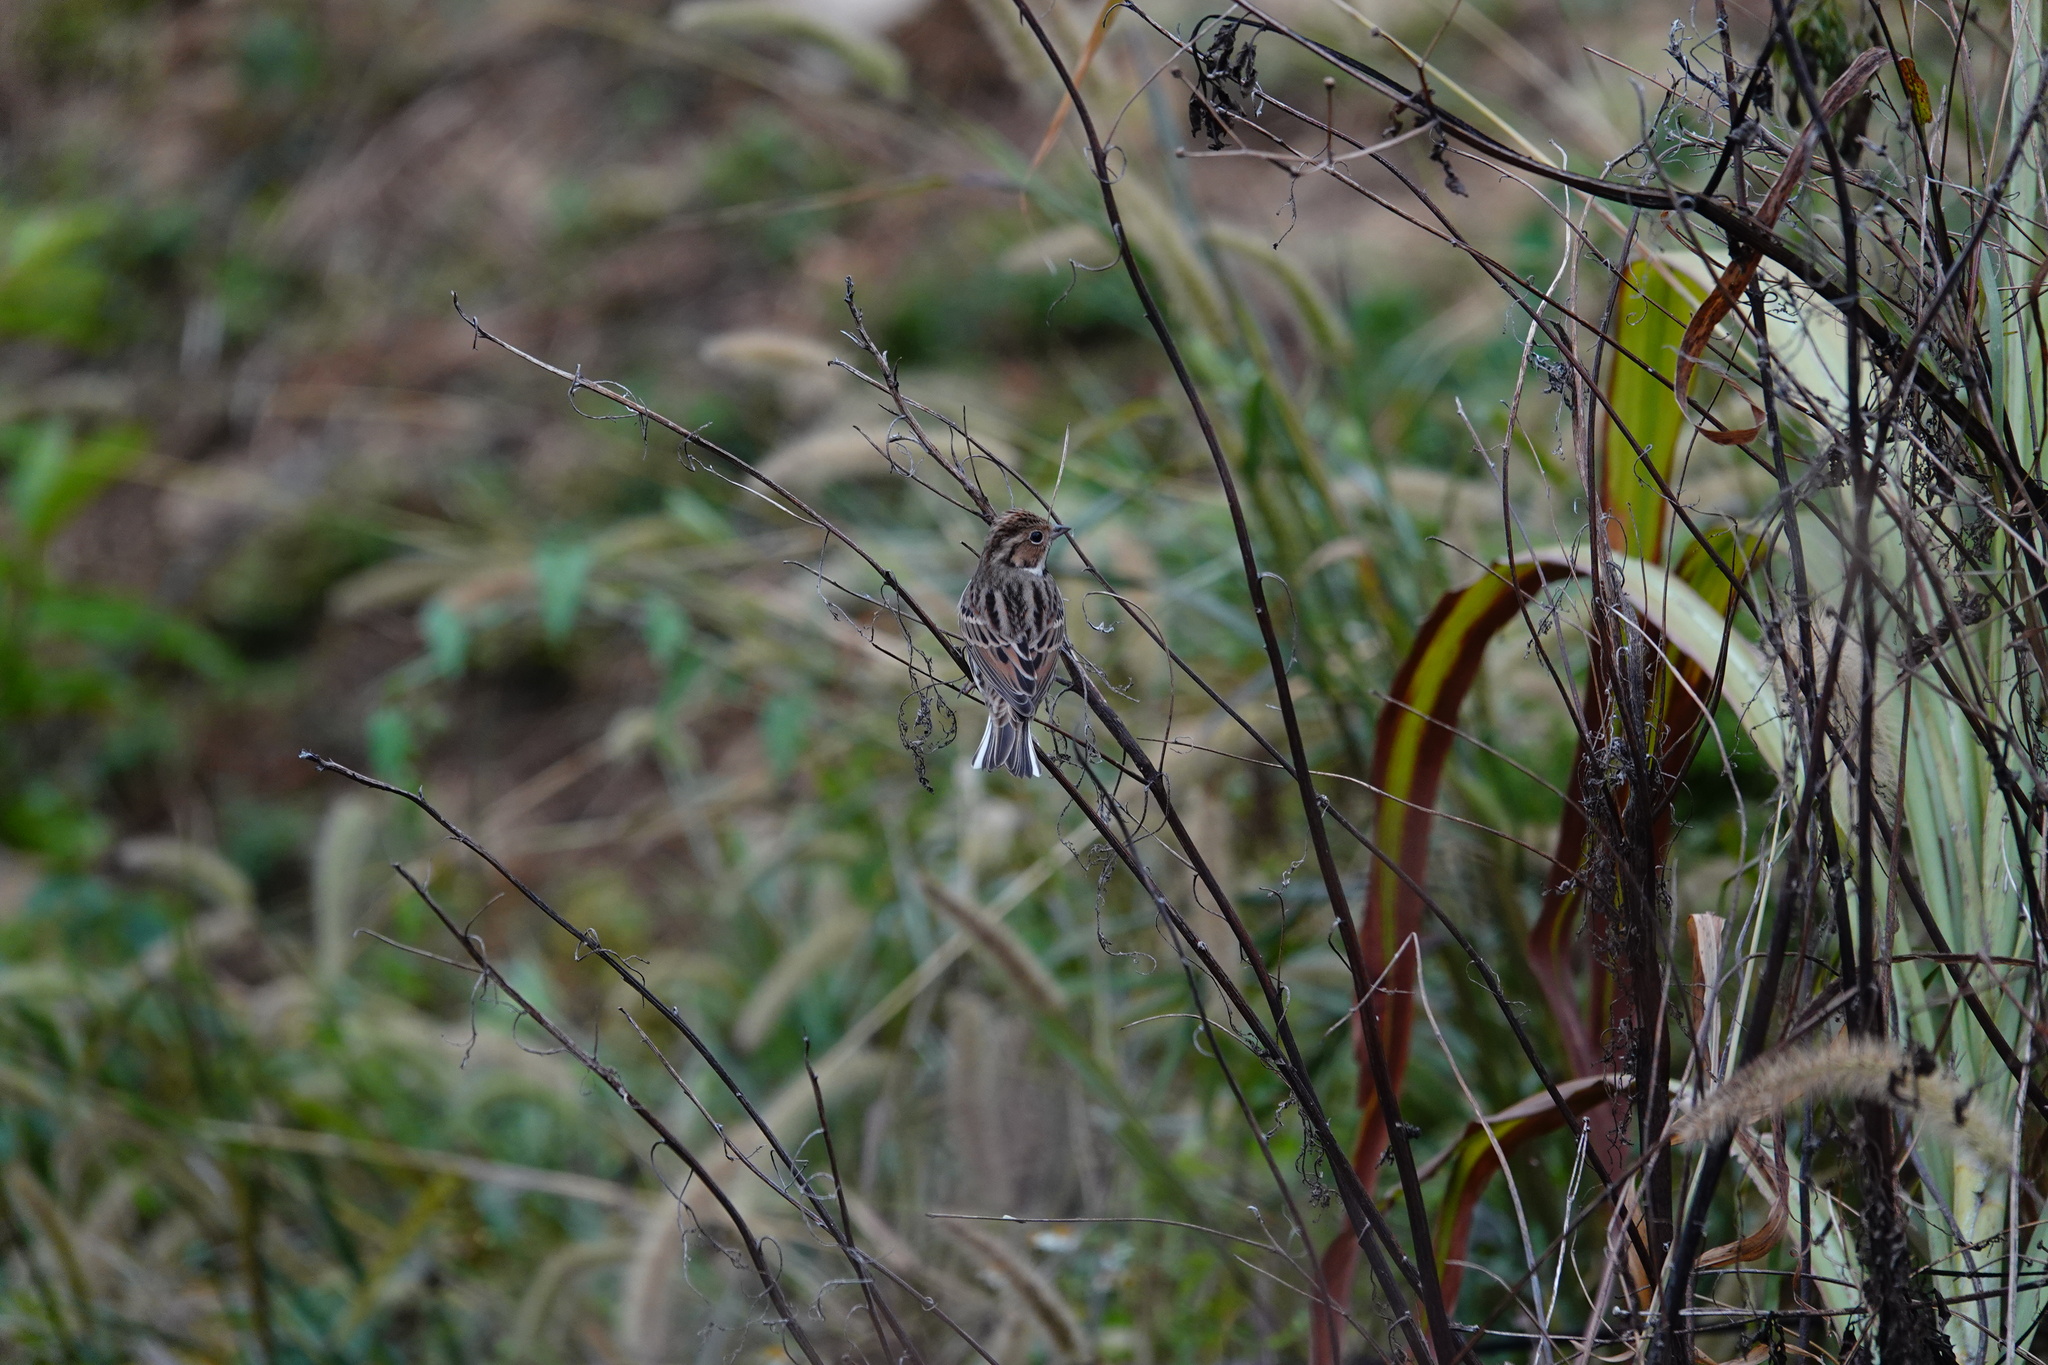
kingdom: Animalia
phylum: Chordata
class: Aves
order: Passeriformes
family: Emberizidae
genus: Emberiza
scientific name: Emberiza pusilla
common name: Little bunting
